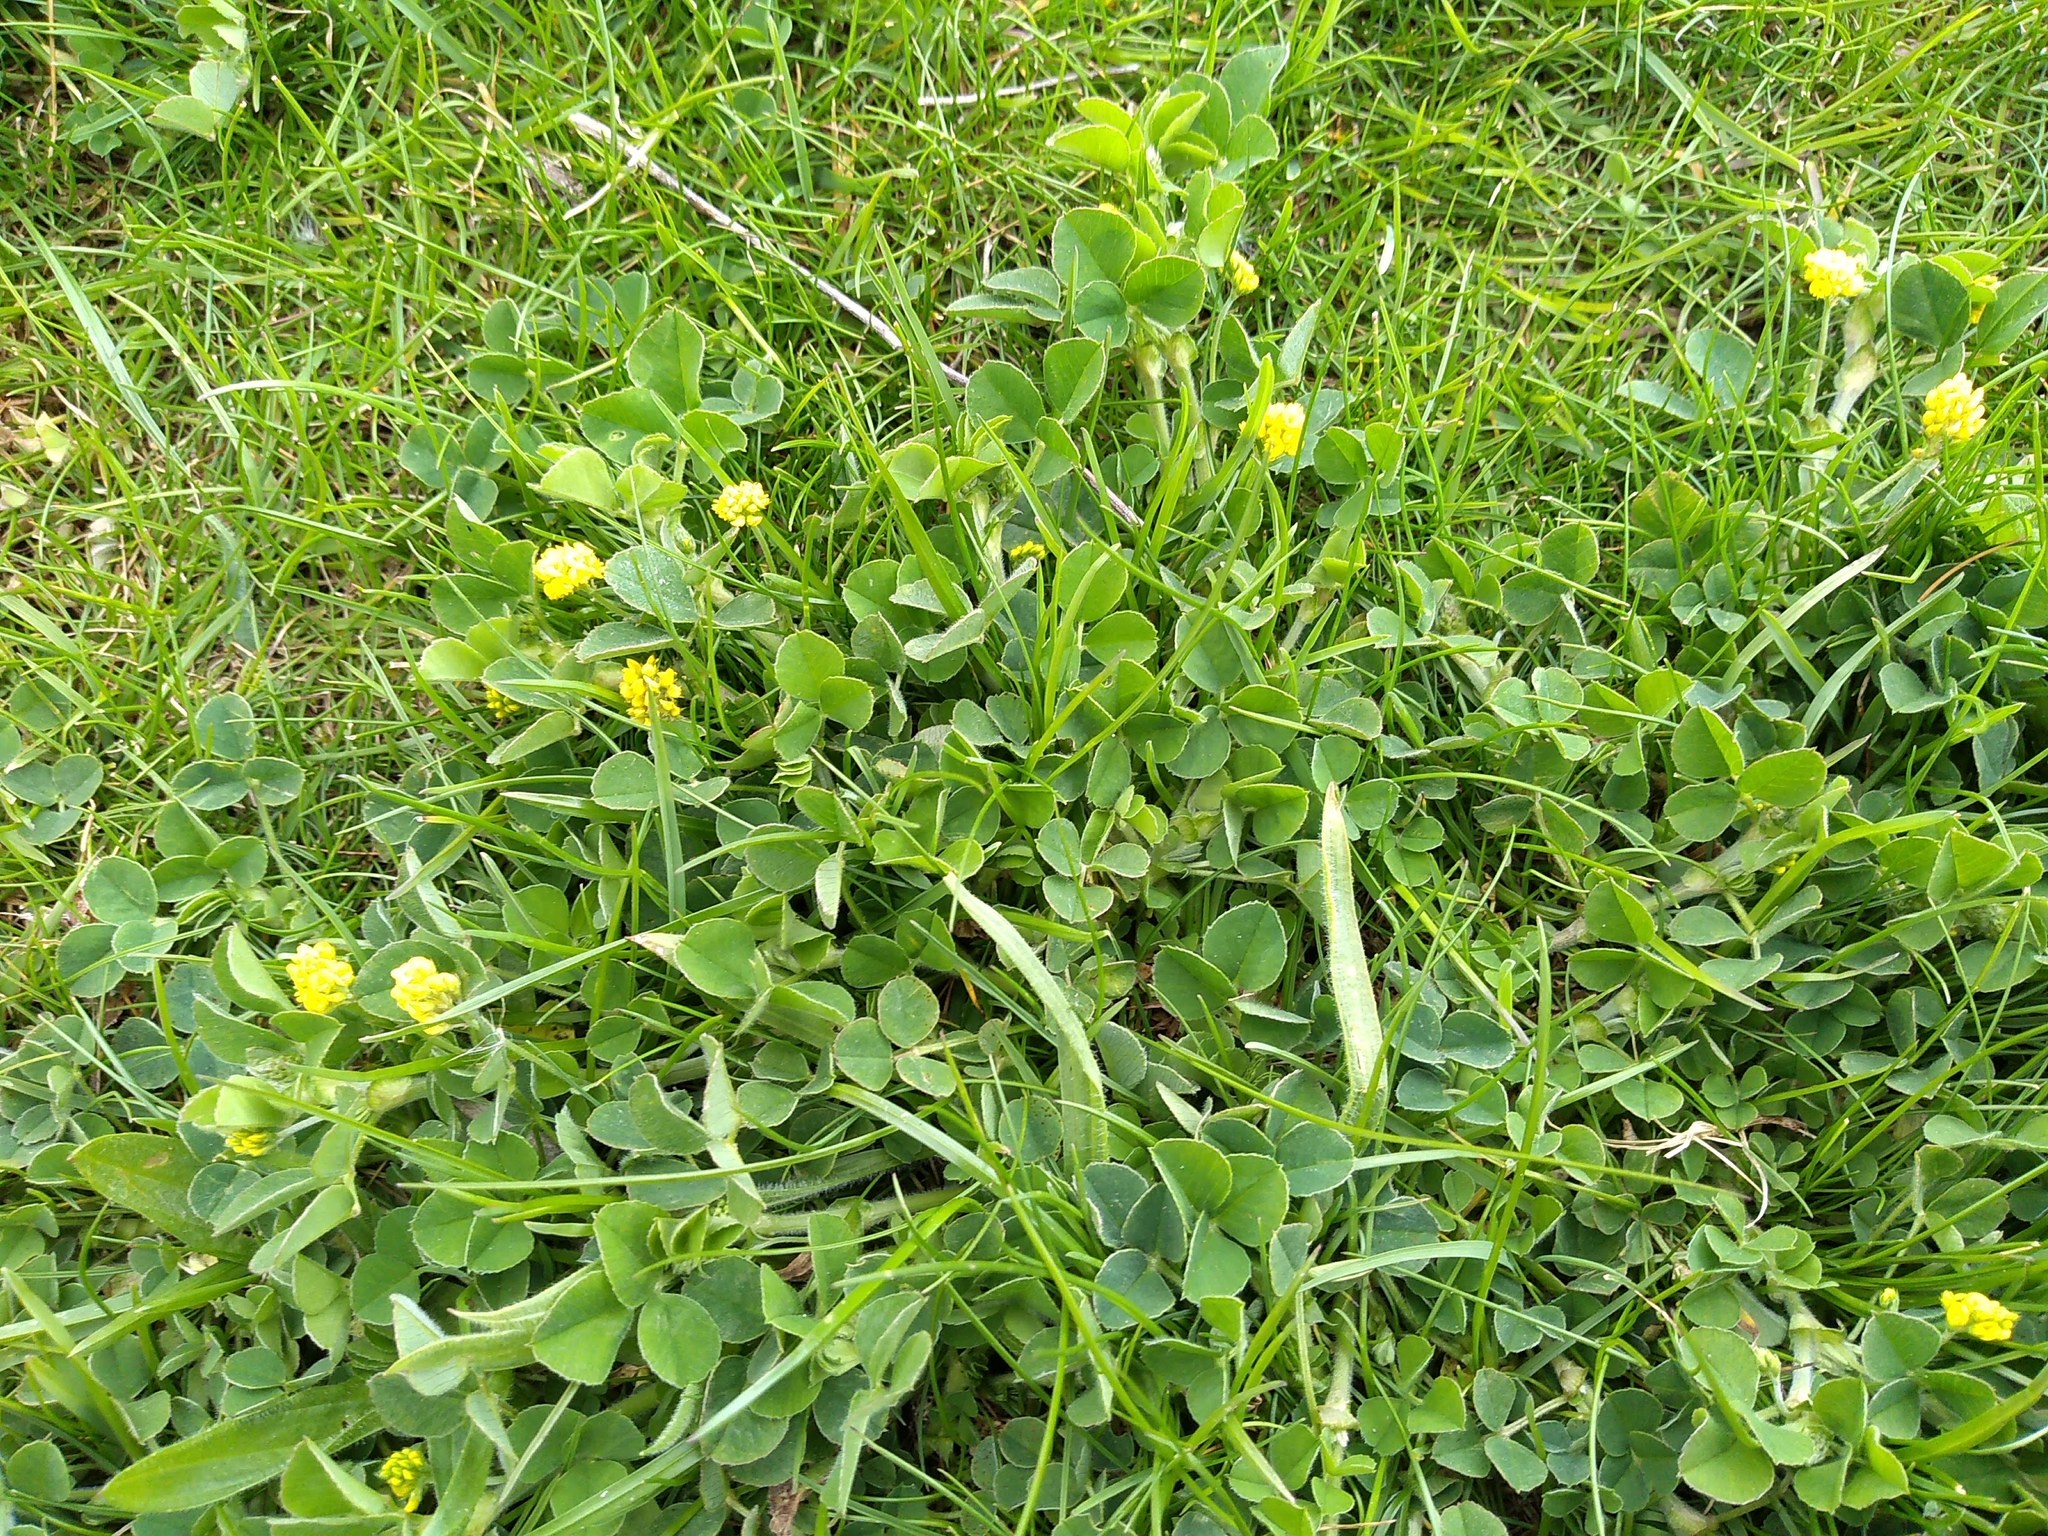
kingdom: Plantae
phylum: Tracheophyta
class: Magnoliopsida
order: Fabales
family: Fabaceae
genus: Medicago
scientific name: Medicago lupulina
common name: Black medick
